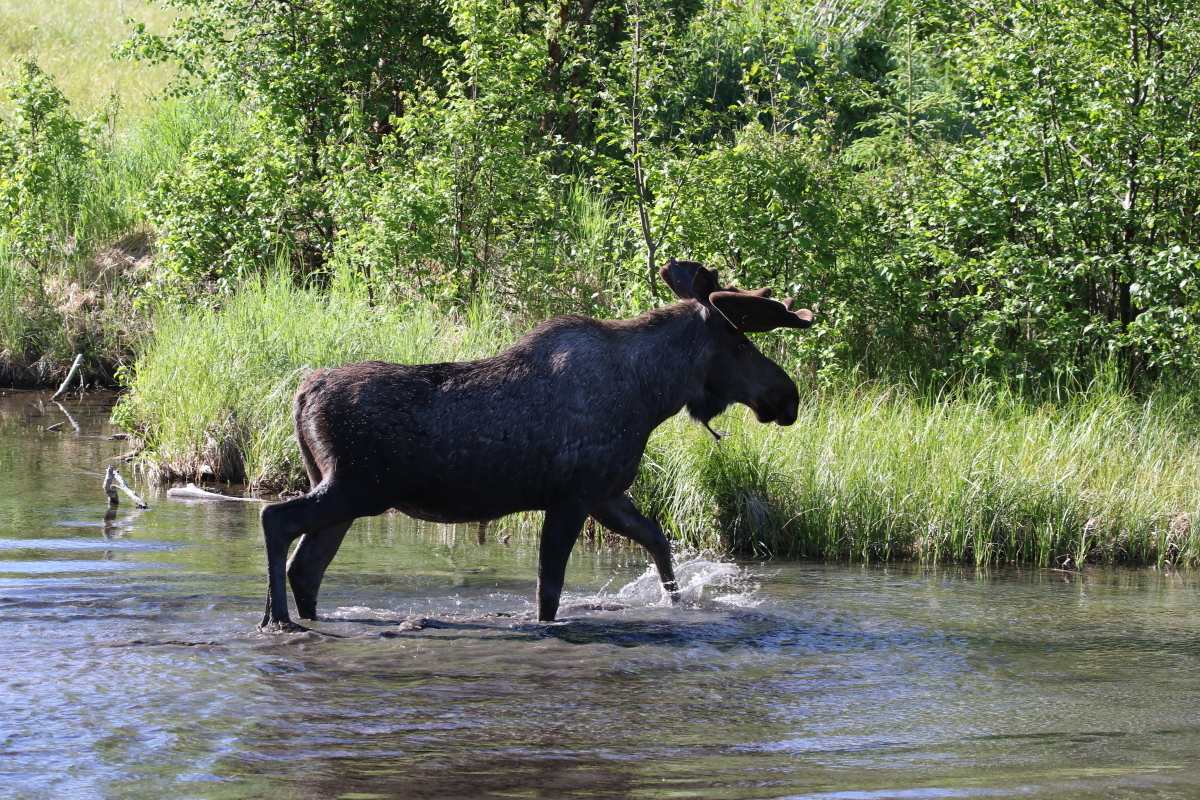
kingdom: Animalia
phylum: Chordata
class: Mammalia
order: Artiodactyla
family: Cervidae
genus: Alces
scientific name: Alces alces
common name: Moose
